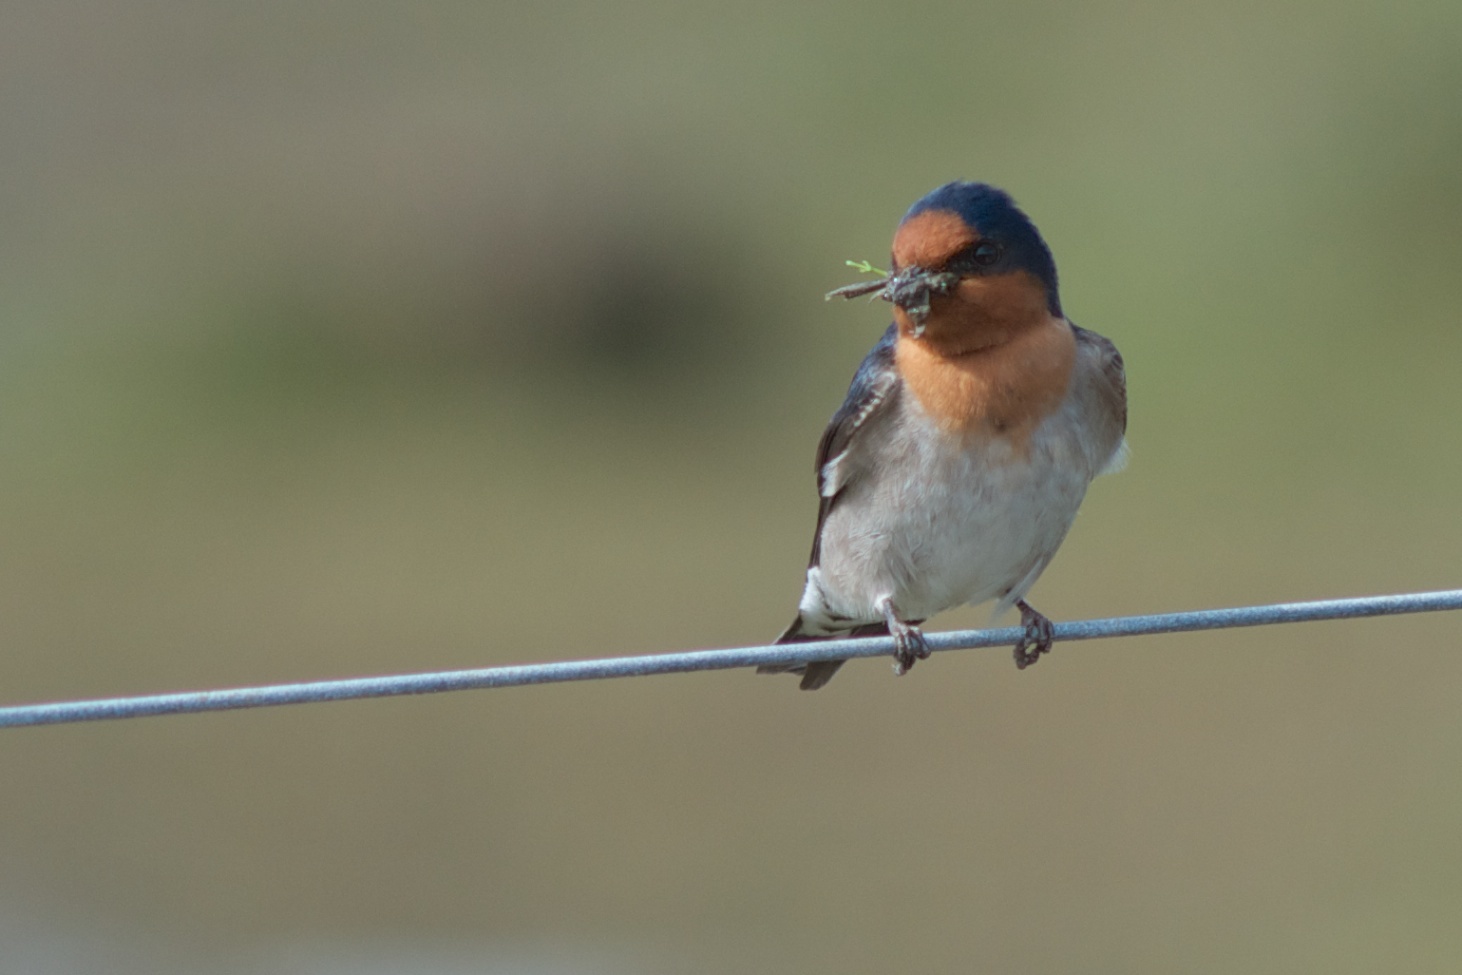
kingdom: Animalia
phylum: Chordata
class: Aves
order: Passeriformes
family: Hirundinidae
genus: Hirundo
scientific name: Hirundo neoxena
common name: Welcome swallow
